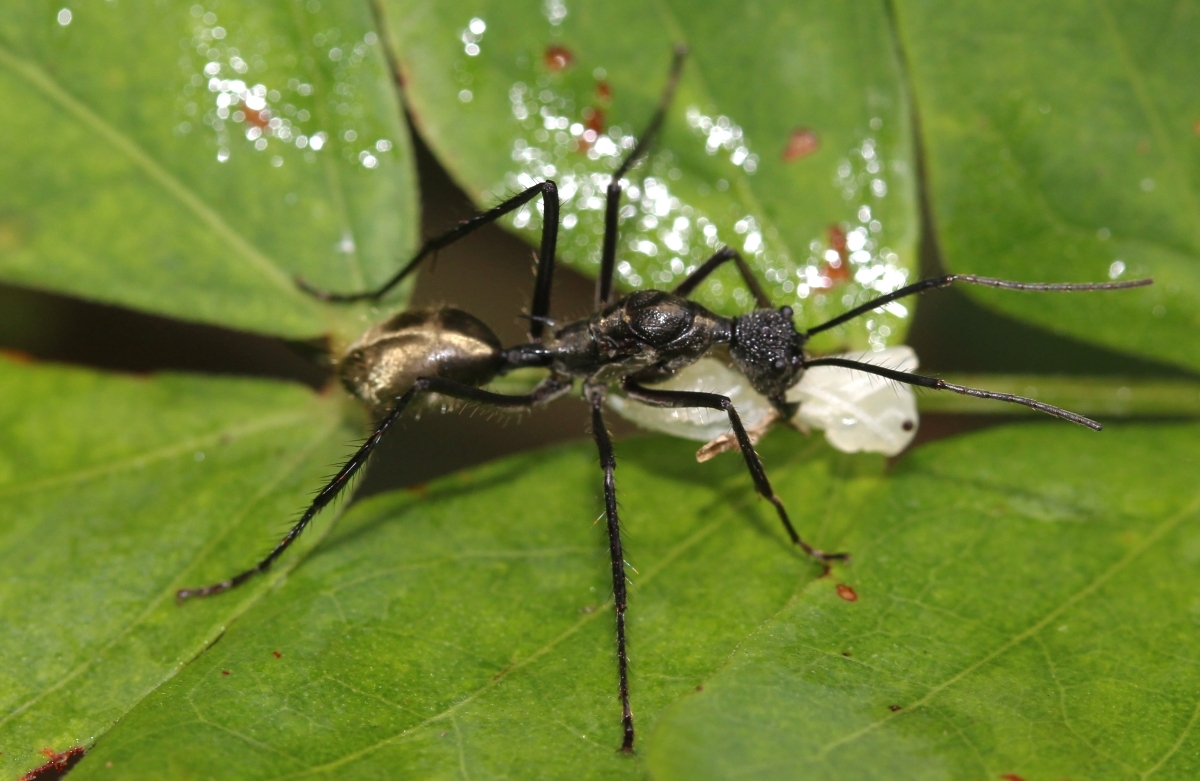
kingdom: Animalia
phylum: Arthropoda
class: Insecta
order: Hymenoptera
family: Formicidae
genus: Dolichoderus
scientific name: Dolichoderus rugosus
